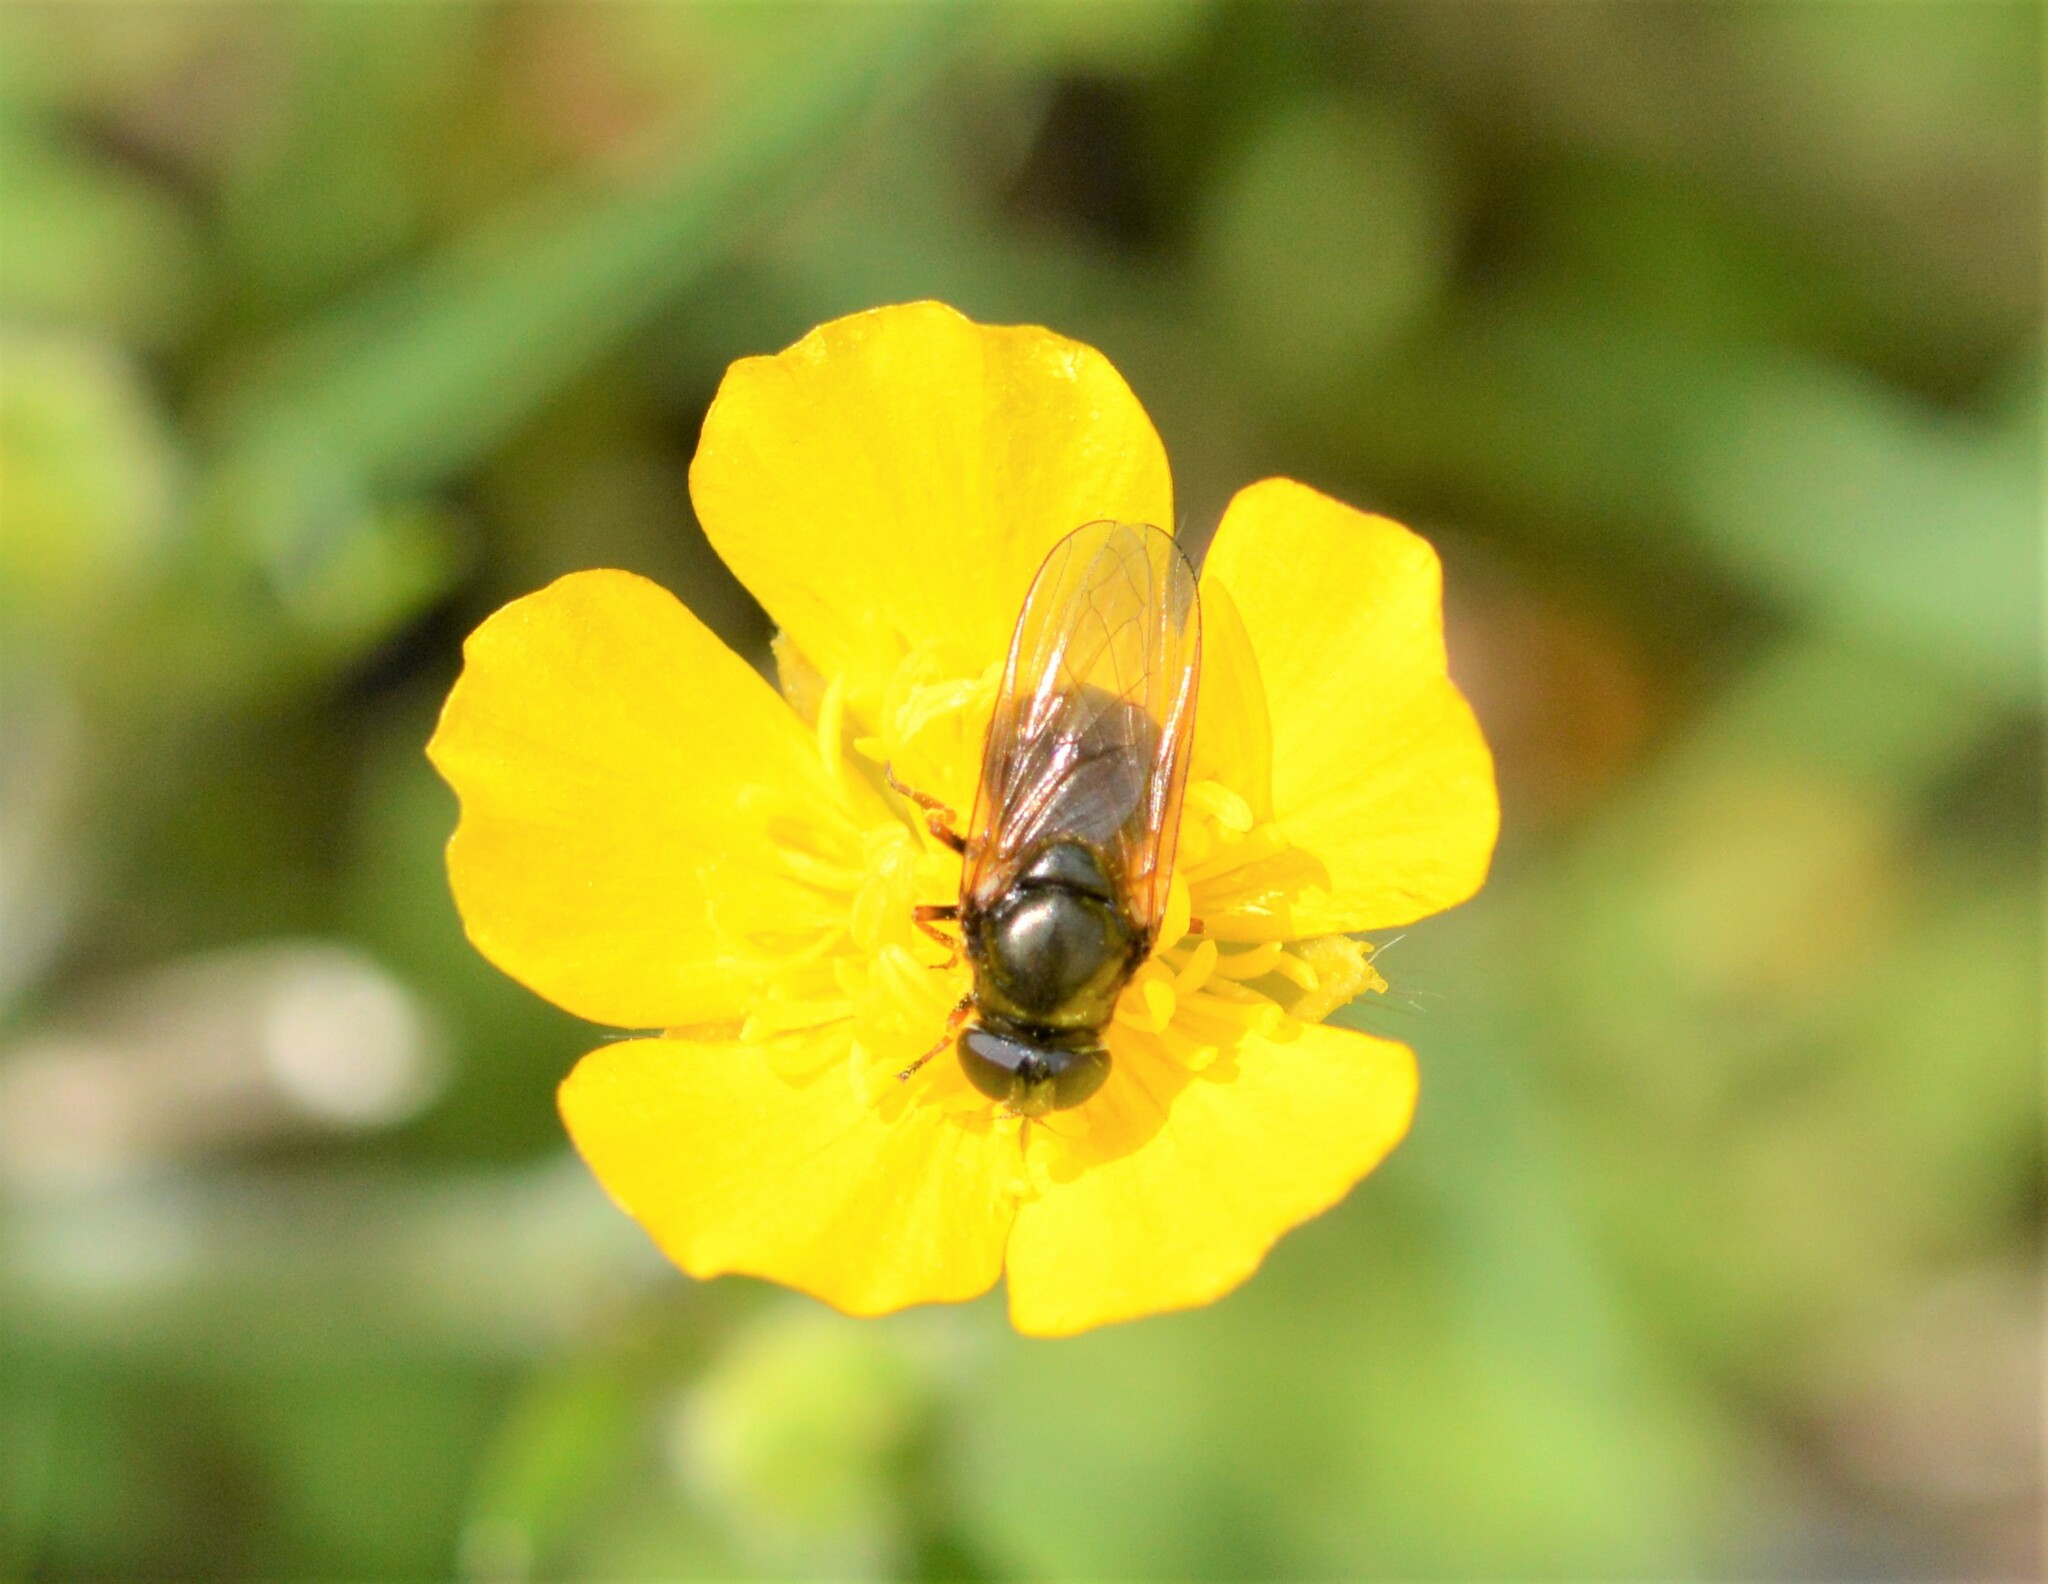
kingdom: Animalia
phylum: Arthropoda
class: Insecta
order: Diptera
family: Syrphidae
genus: Cheilosia
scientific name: Cheilosia
